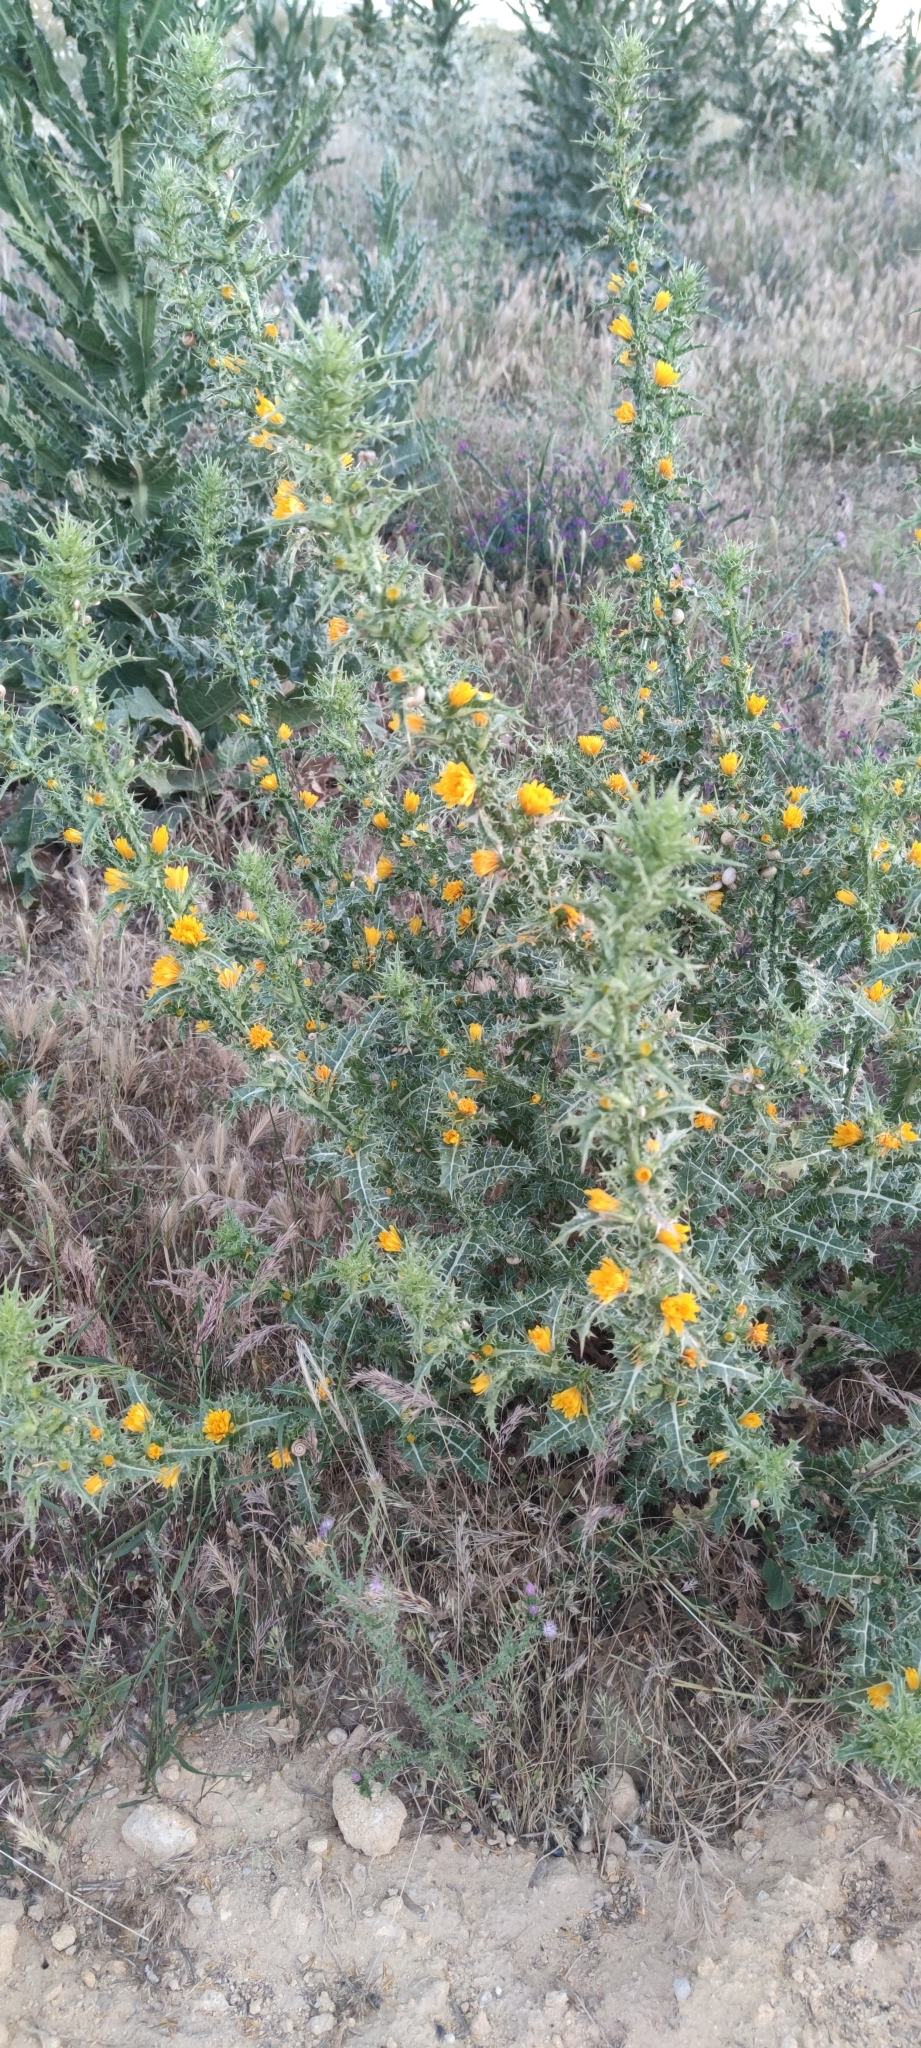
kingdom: Plantae
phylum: Tracheophyta
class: Magnoliopsida
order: Asterales
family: Asteraceae
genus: Scolymus
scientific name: Scolymus hispanicus
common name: Golden thistle
